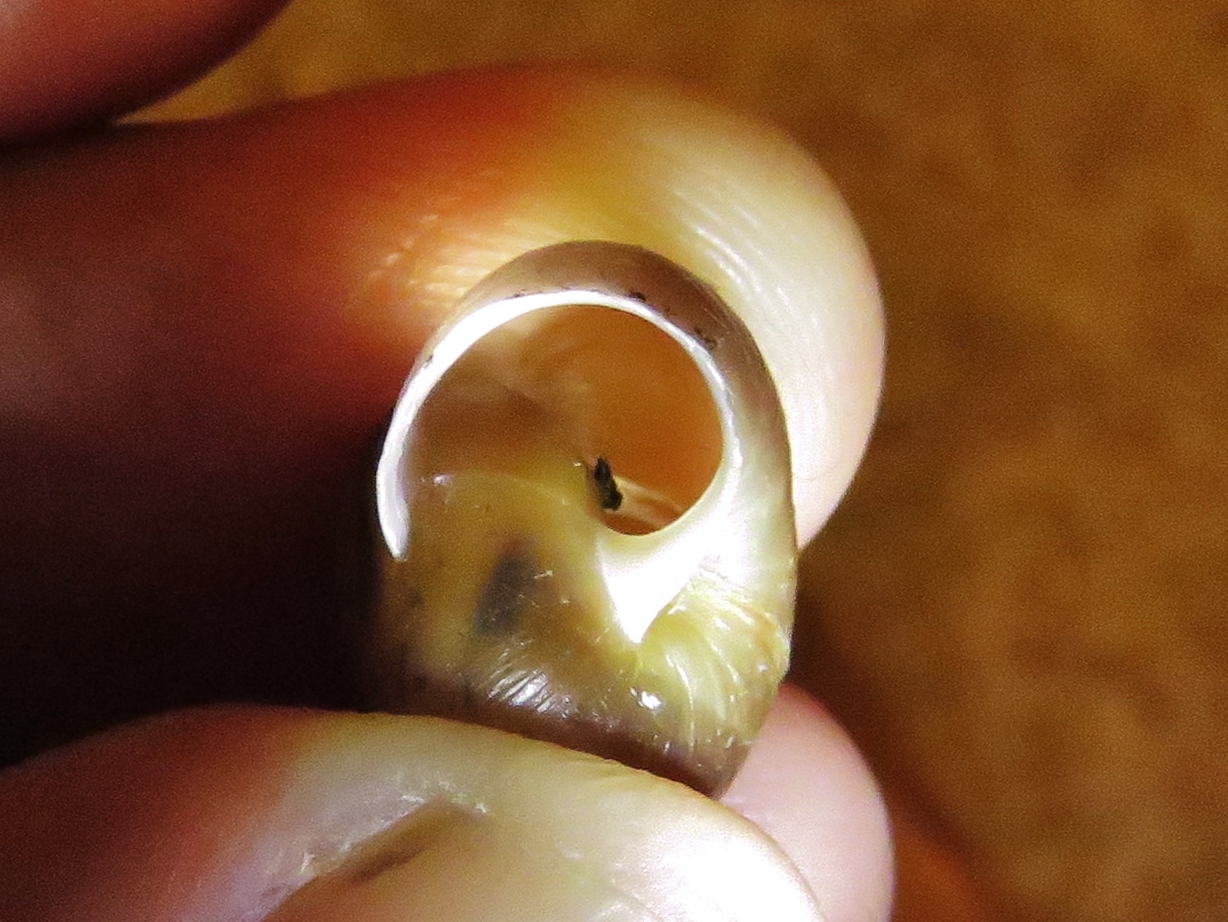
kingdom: Animalia
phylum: Mollusca
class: Gastropoda
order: Stylommatophora
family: Camaenidae
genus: Bradybaena
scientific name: Bradybaena similaris
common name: Asian trampsnail
